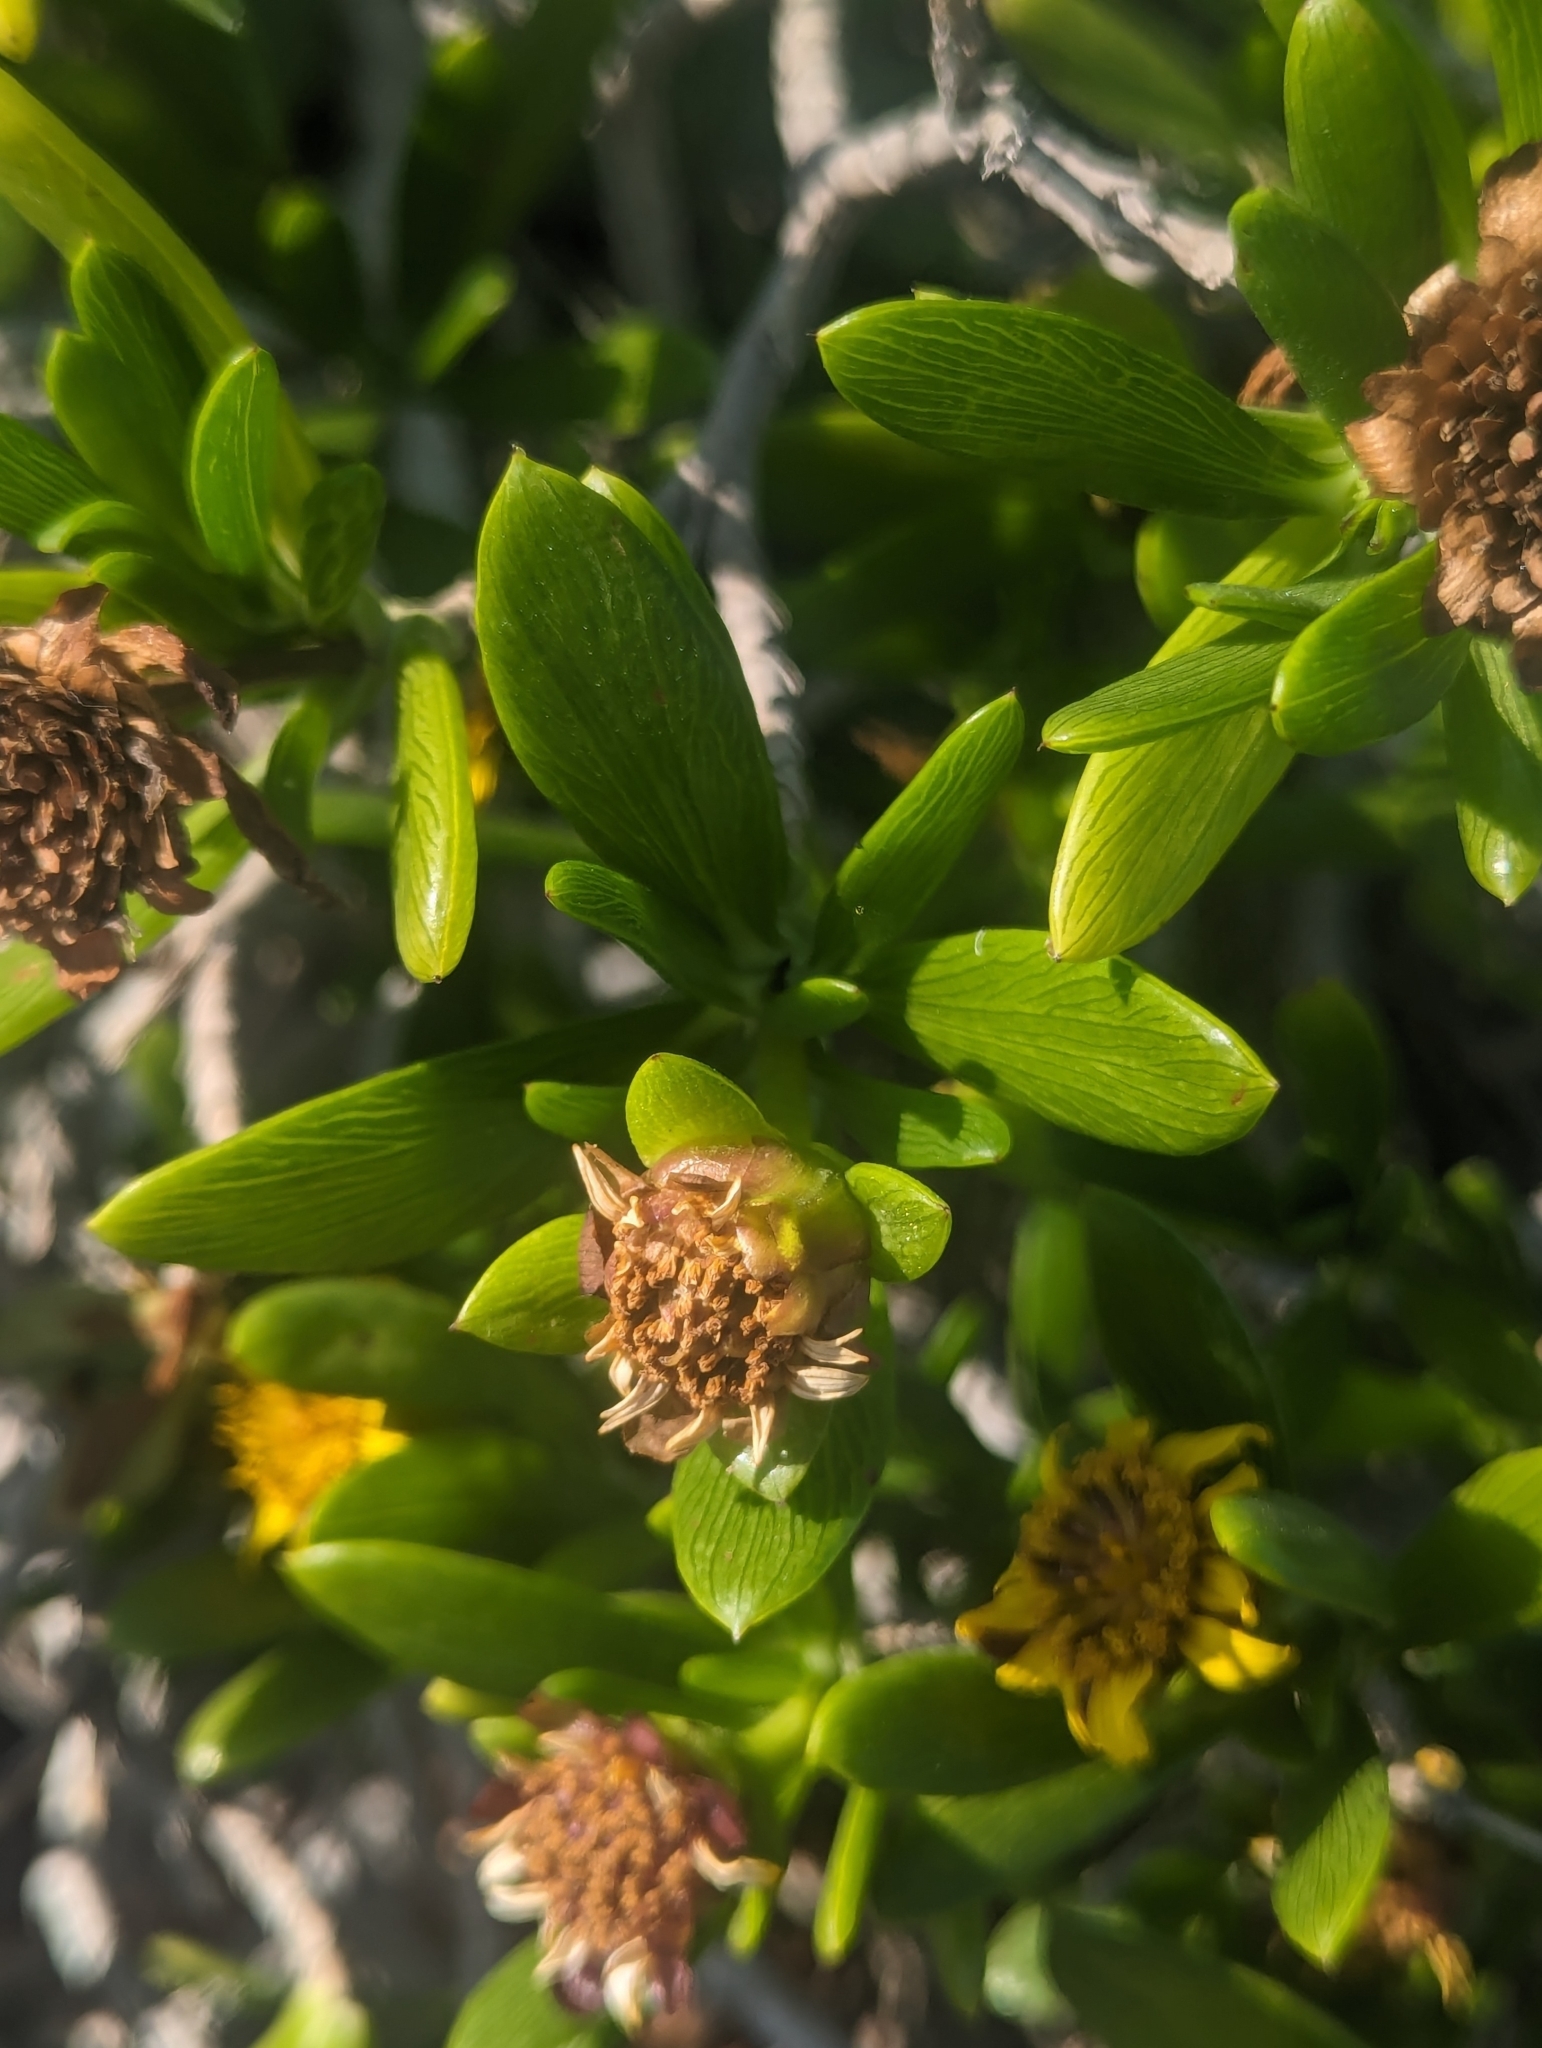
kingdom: Plantae
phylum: Tracheophyta
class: Magnoliopsida
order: Asterales
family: Asteraceae
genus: Borrichia
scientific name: Borrichia arborescens
